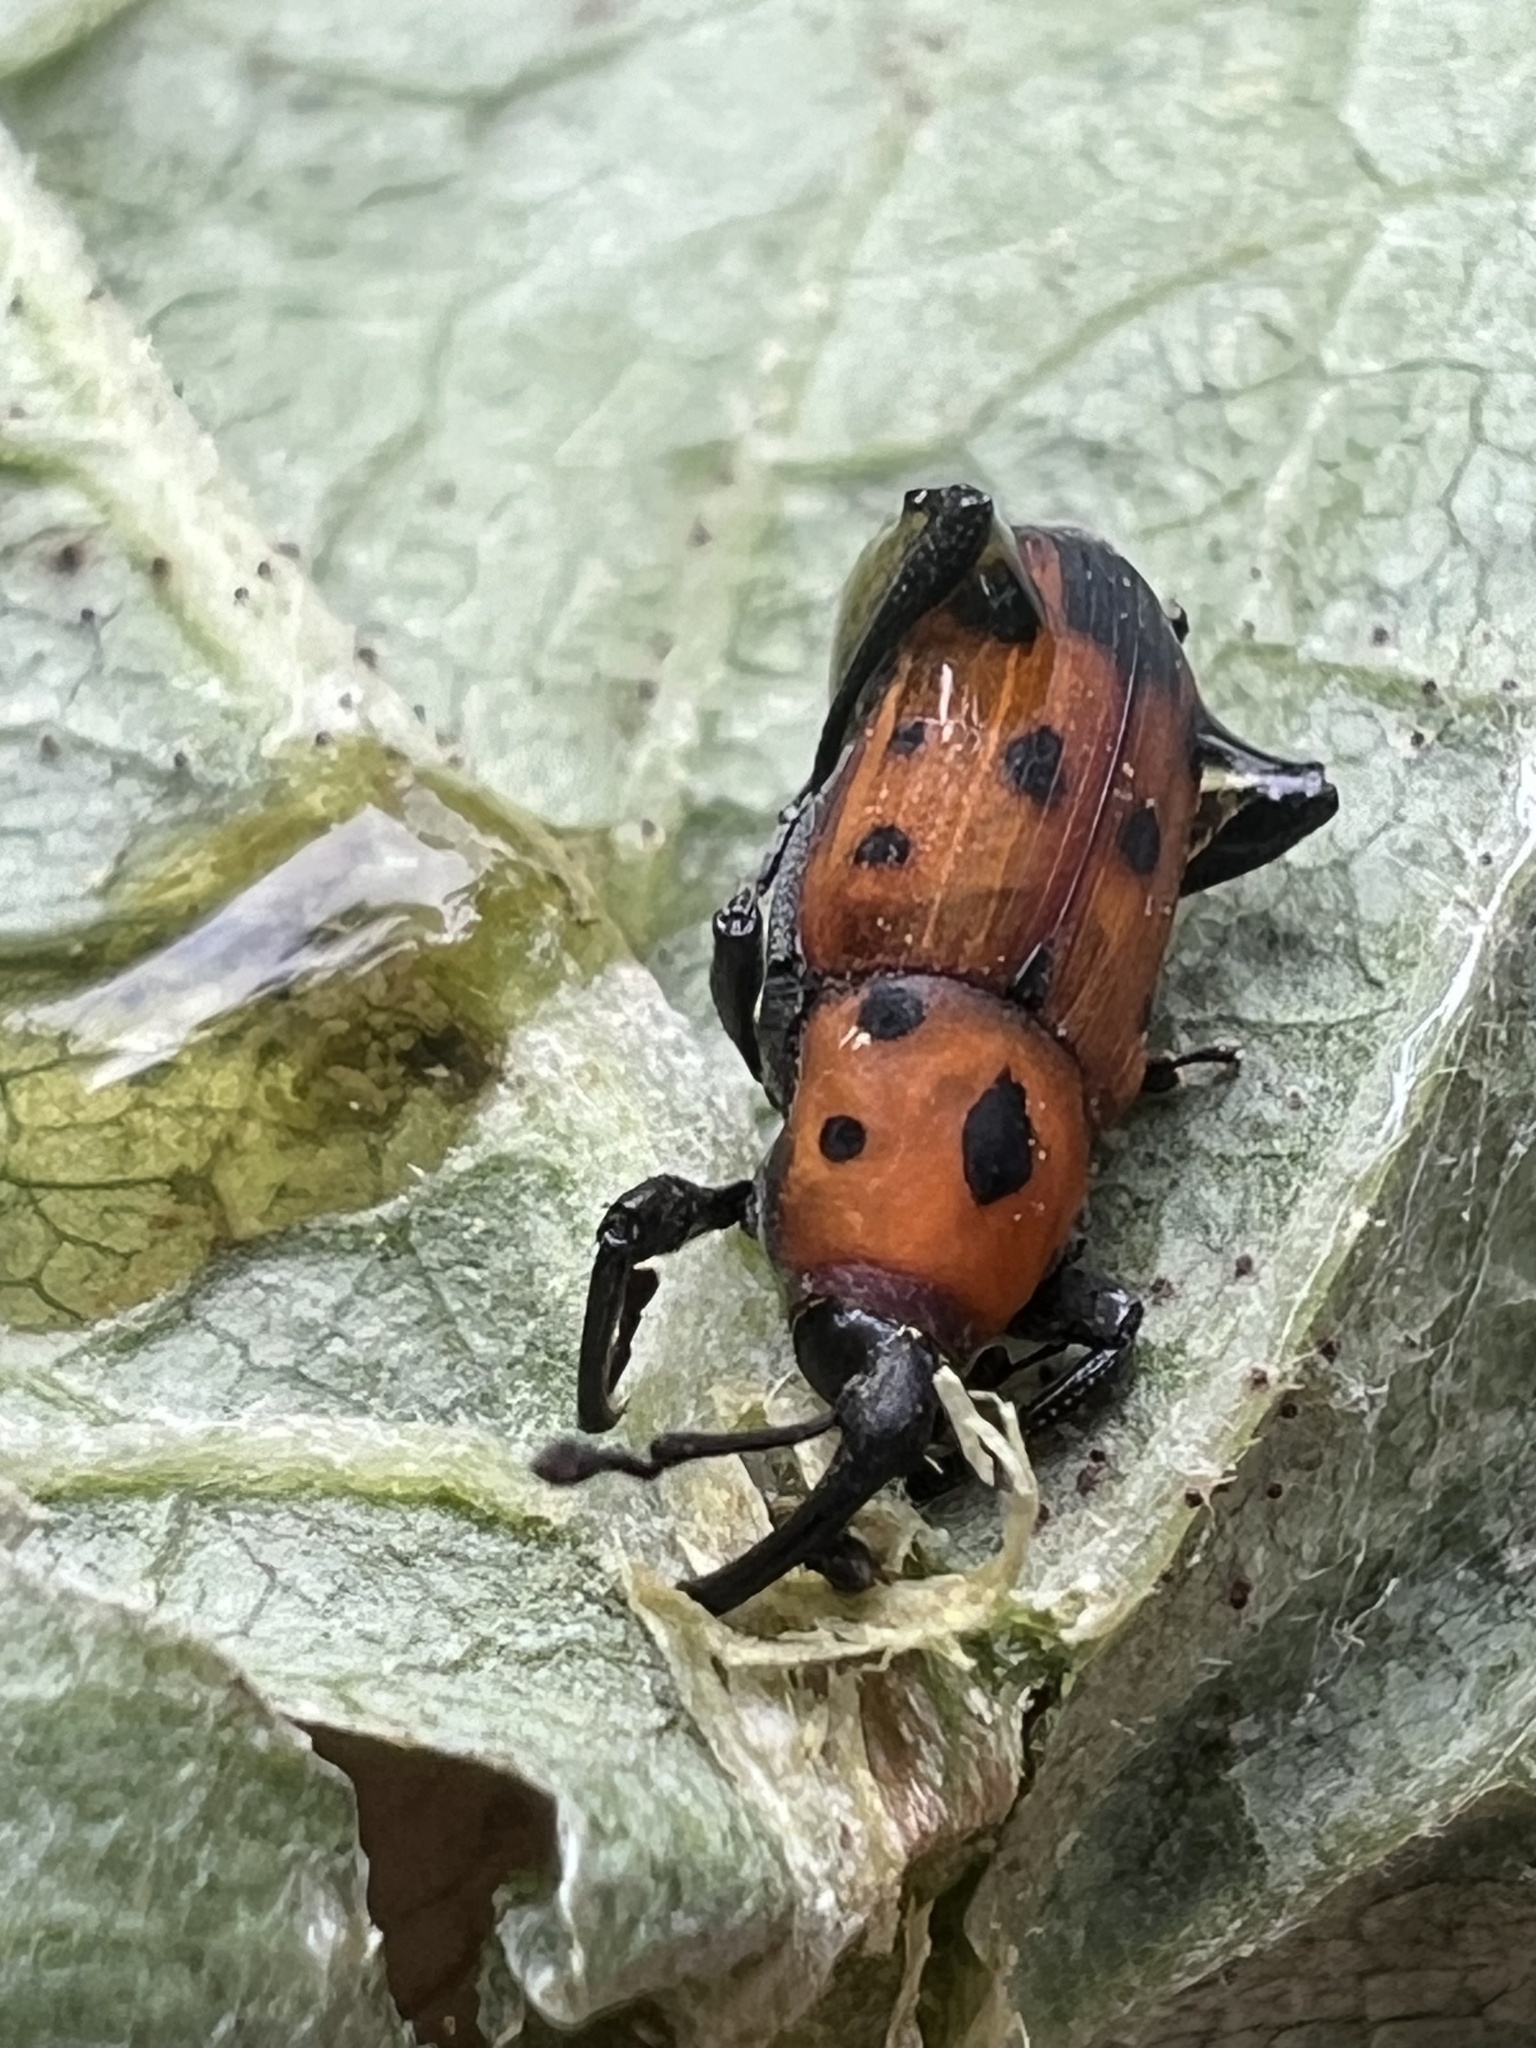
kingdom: Animalia
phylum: Arthropoda
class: Insecta
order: Coleoptera
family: Dryophthoridae
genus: Rhodobaenus
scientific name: Rhodobaenus quinquepunctatus
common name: Cocklebur weevil
